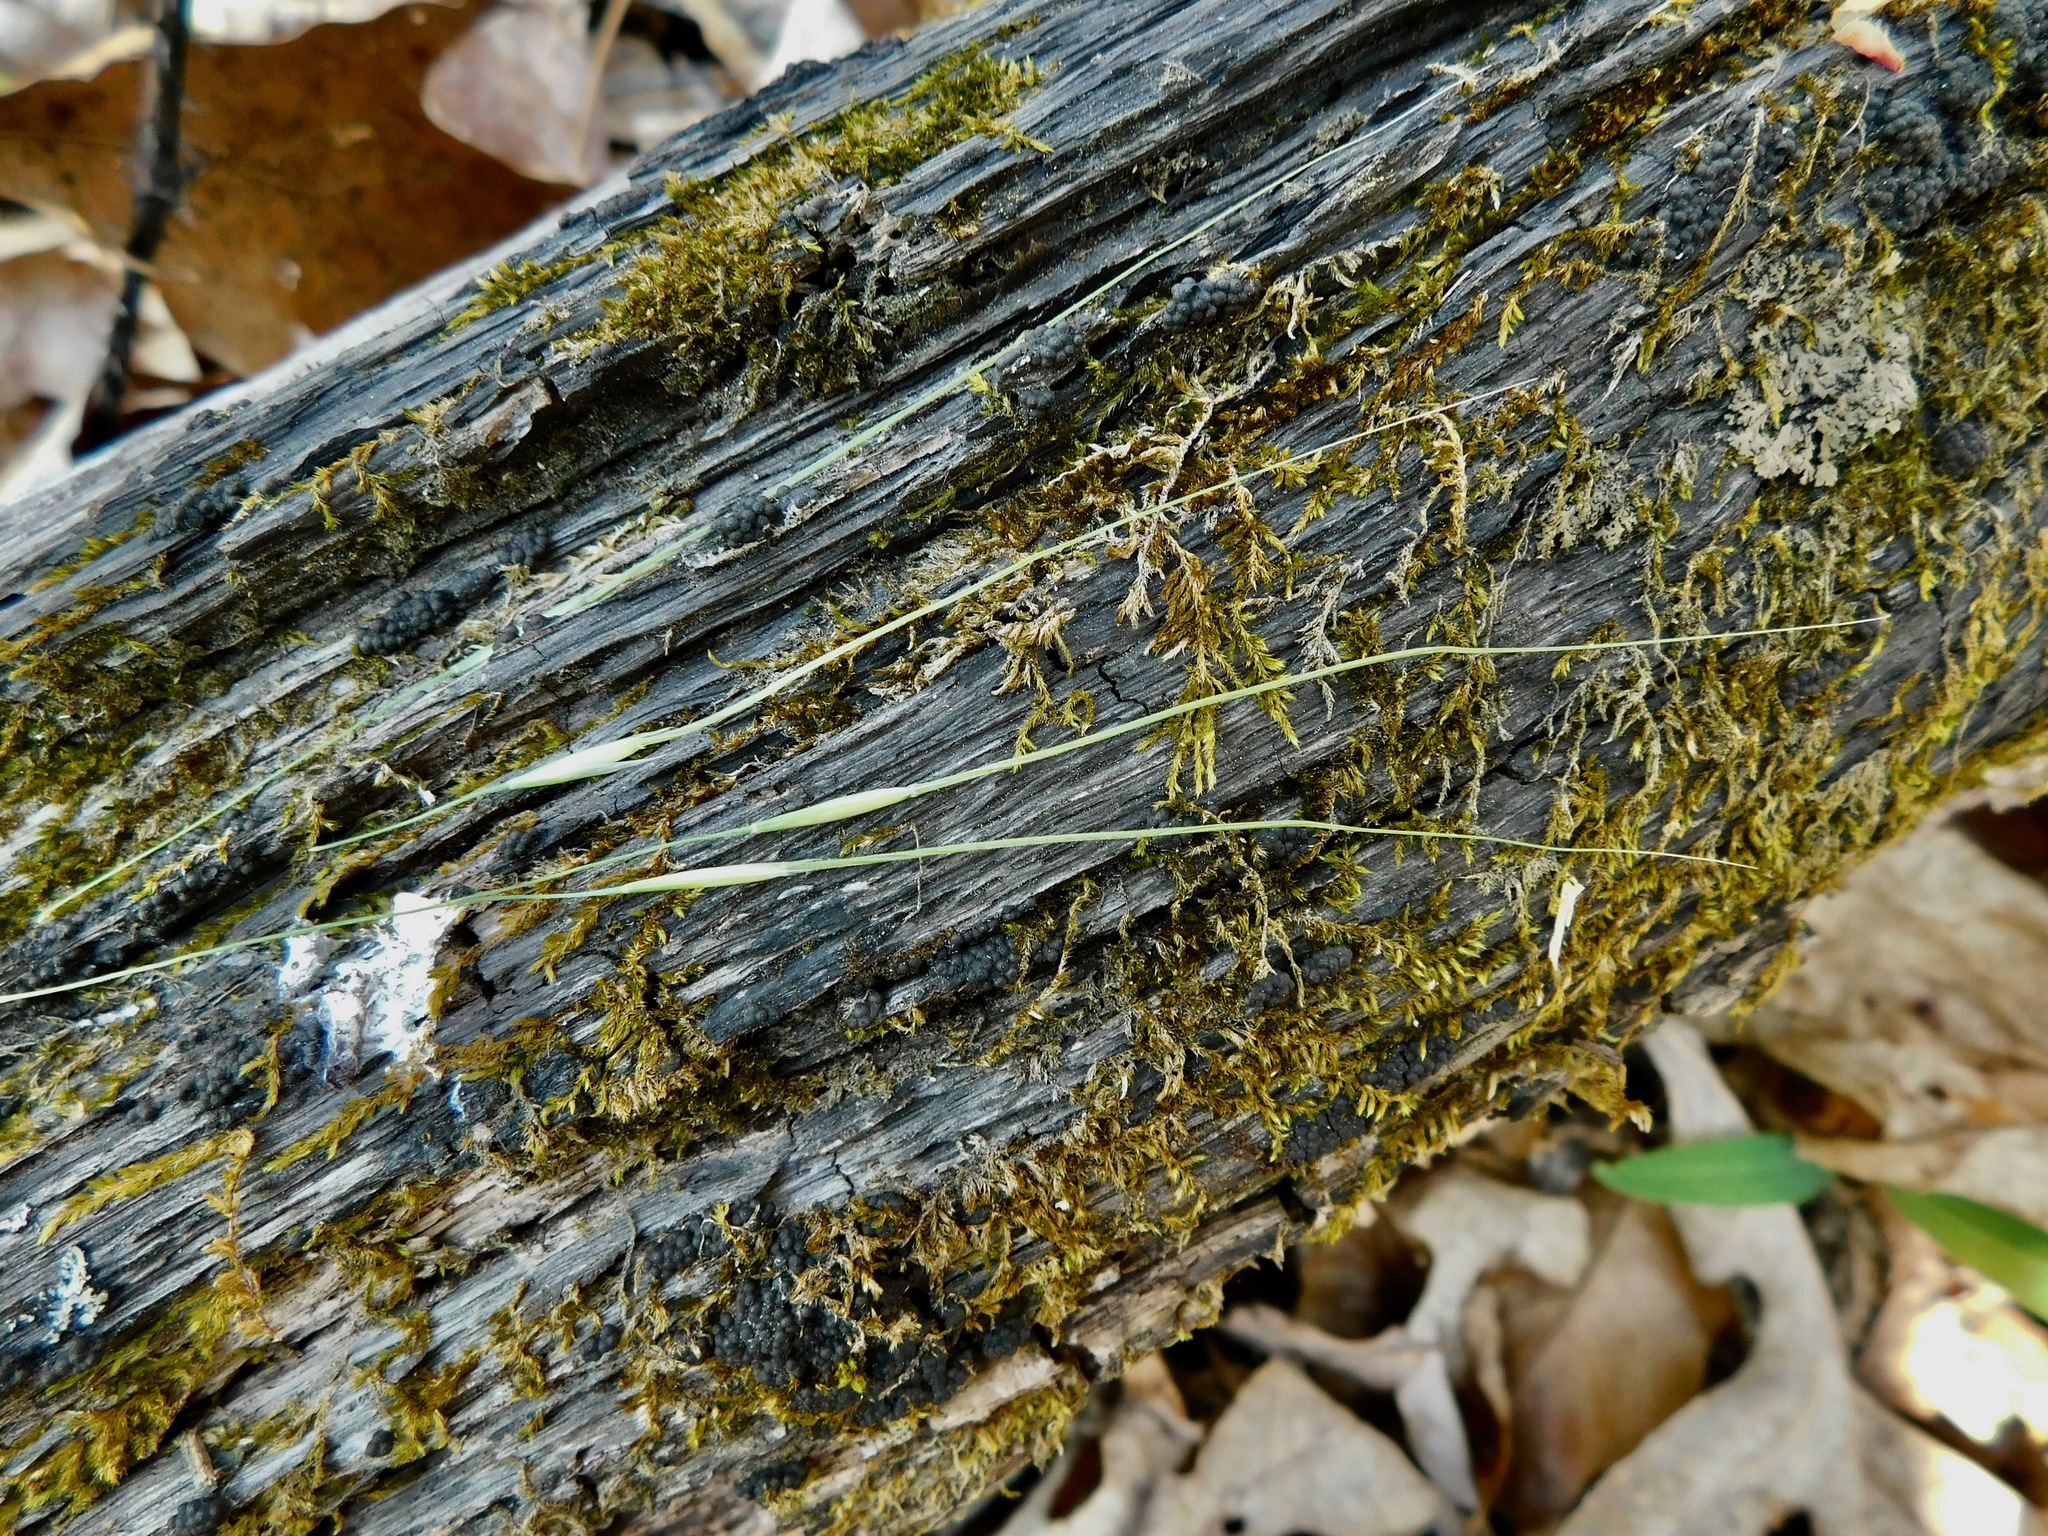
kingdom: Plantae
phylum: Tracheophyta
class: Liliopsida
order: Poales
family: Poaceae
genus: Piptochaetium
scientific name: Piptochaetium avenaceum
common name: Black bunchgrass
